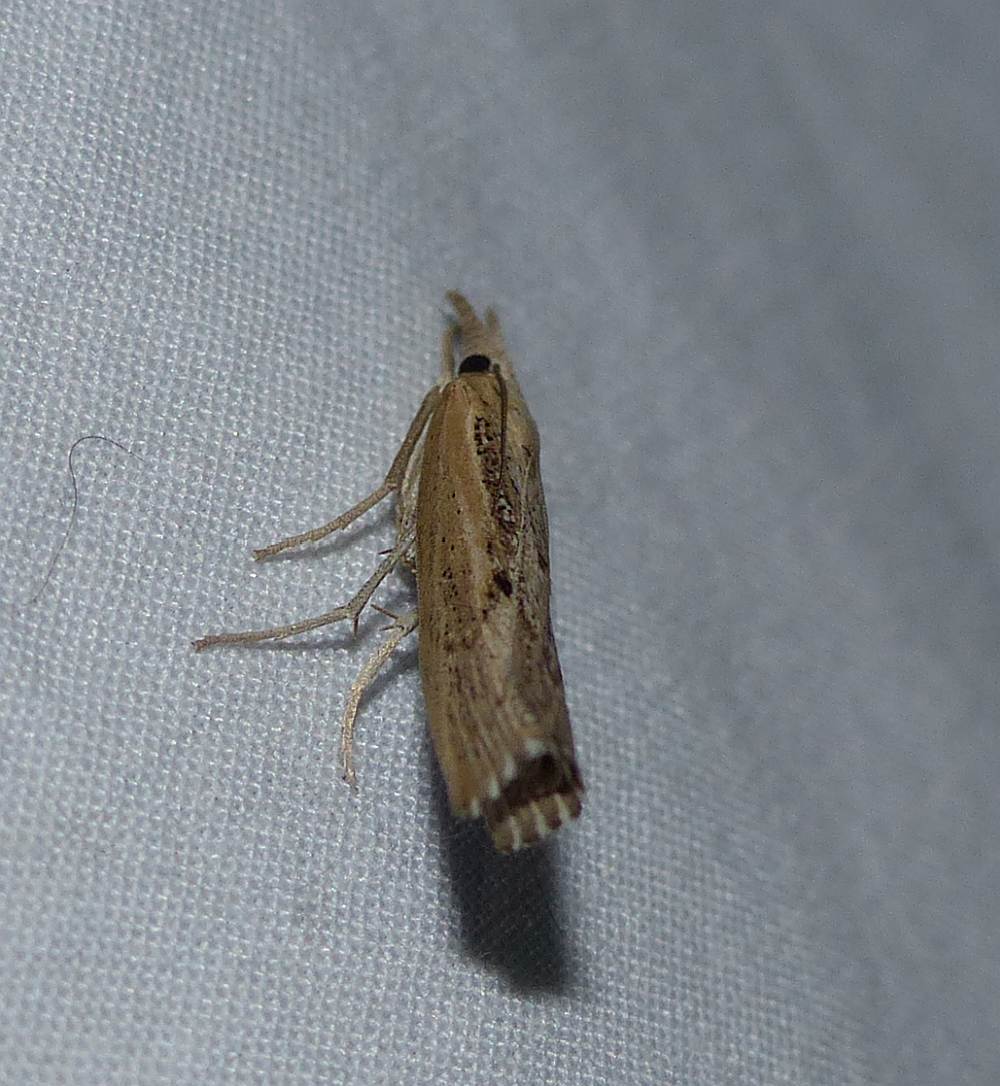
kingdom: Animalia
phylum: Arthropoda
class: Insecta
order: Lepidoptera
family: Crambidae
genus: Pediasia
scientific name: Pediasia trisecta
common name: Sod webworm moth
